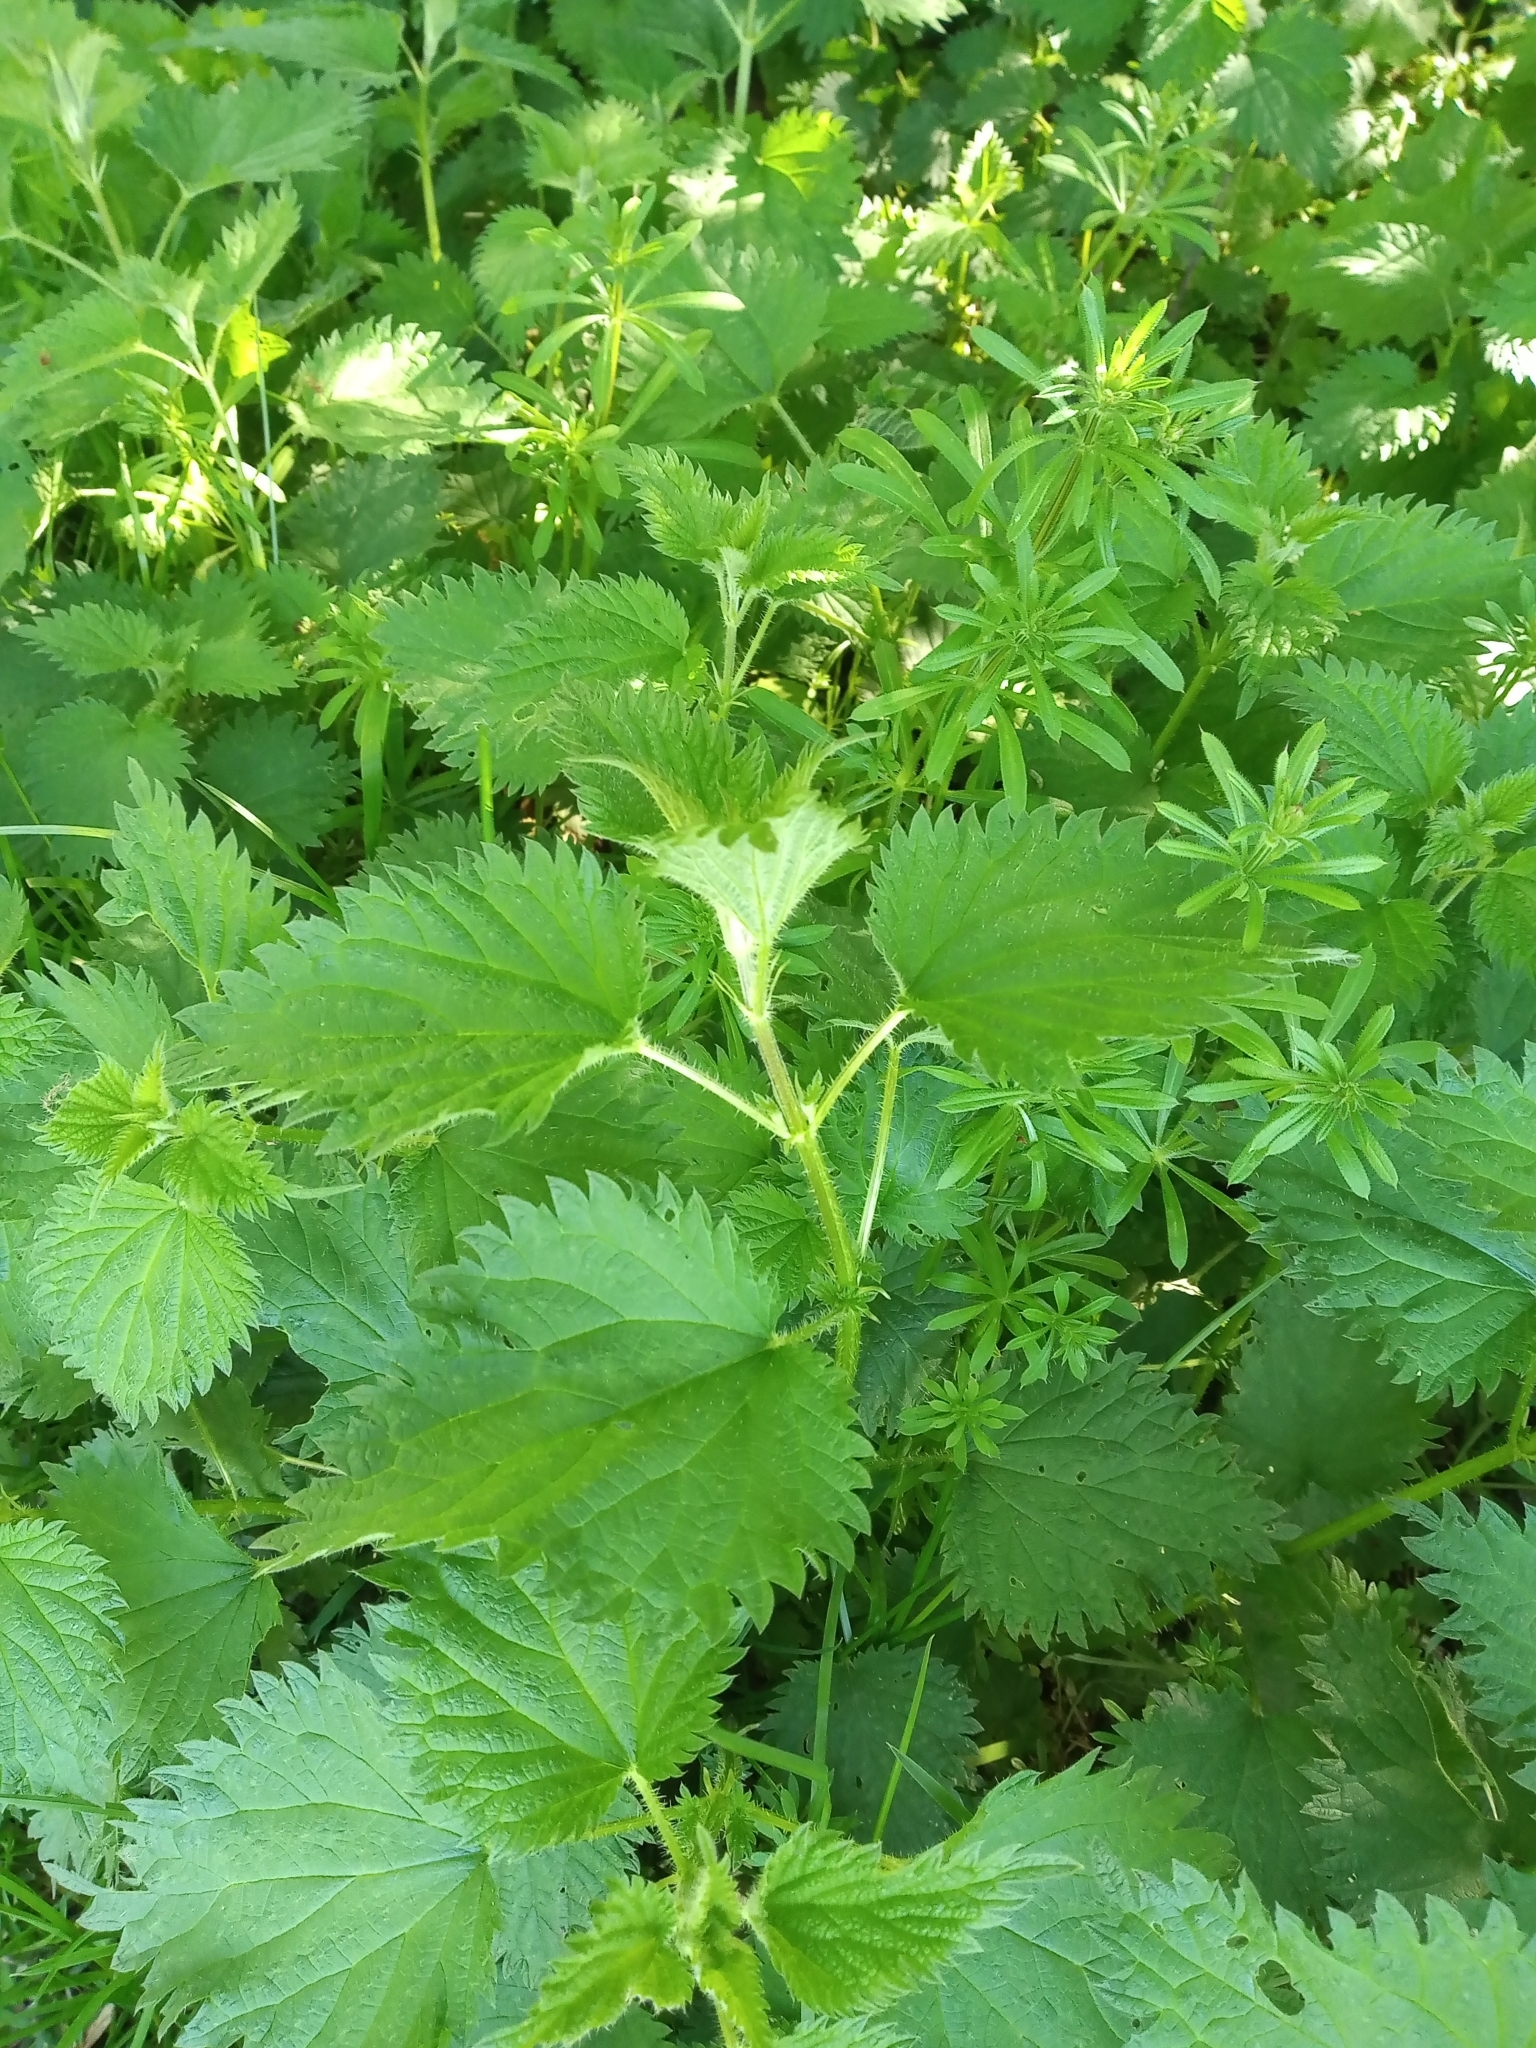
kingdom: Plantae
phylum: Tracheophyta
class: Magnoliopsida
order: Rosales
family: Urticaceae
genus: Urtica
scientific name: Urtica dioica
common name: Common nettle
